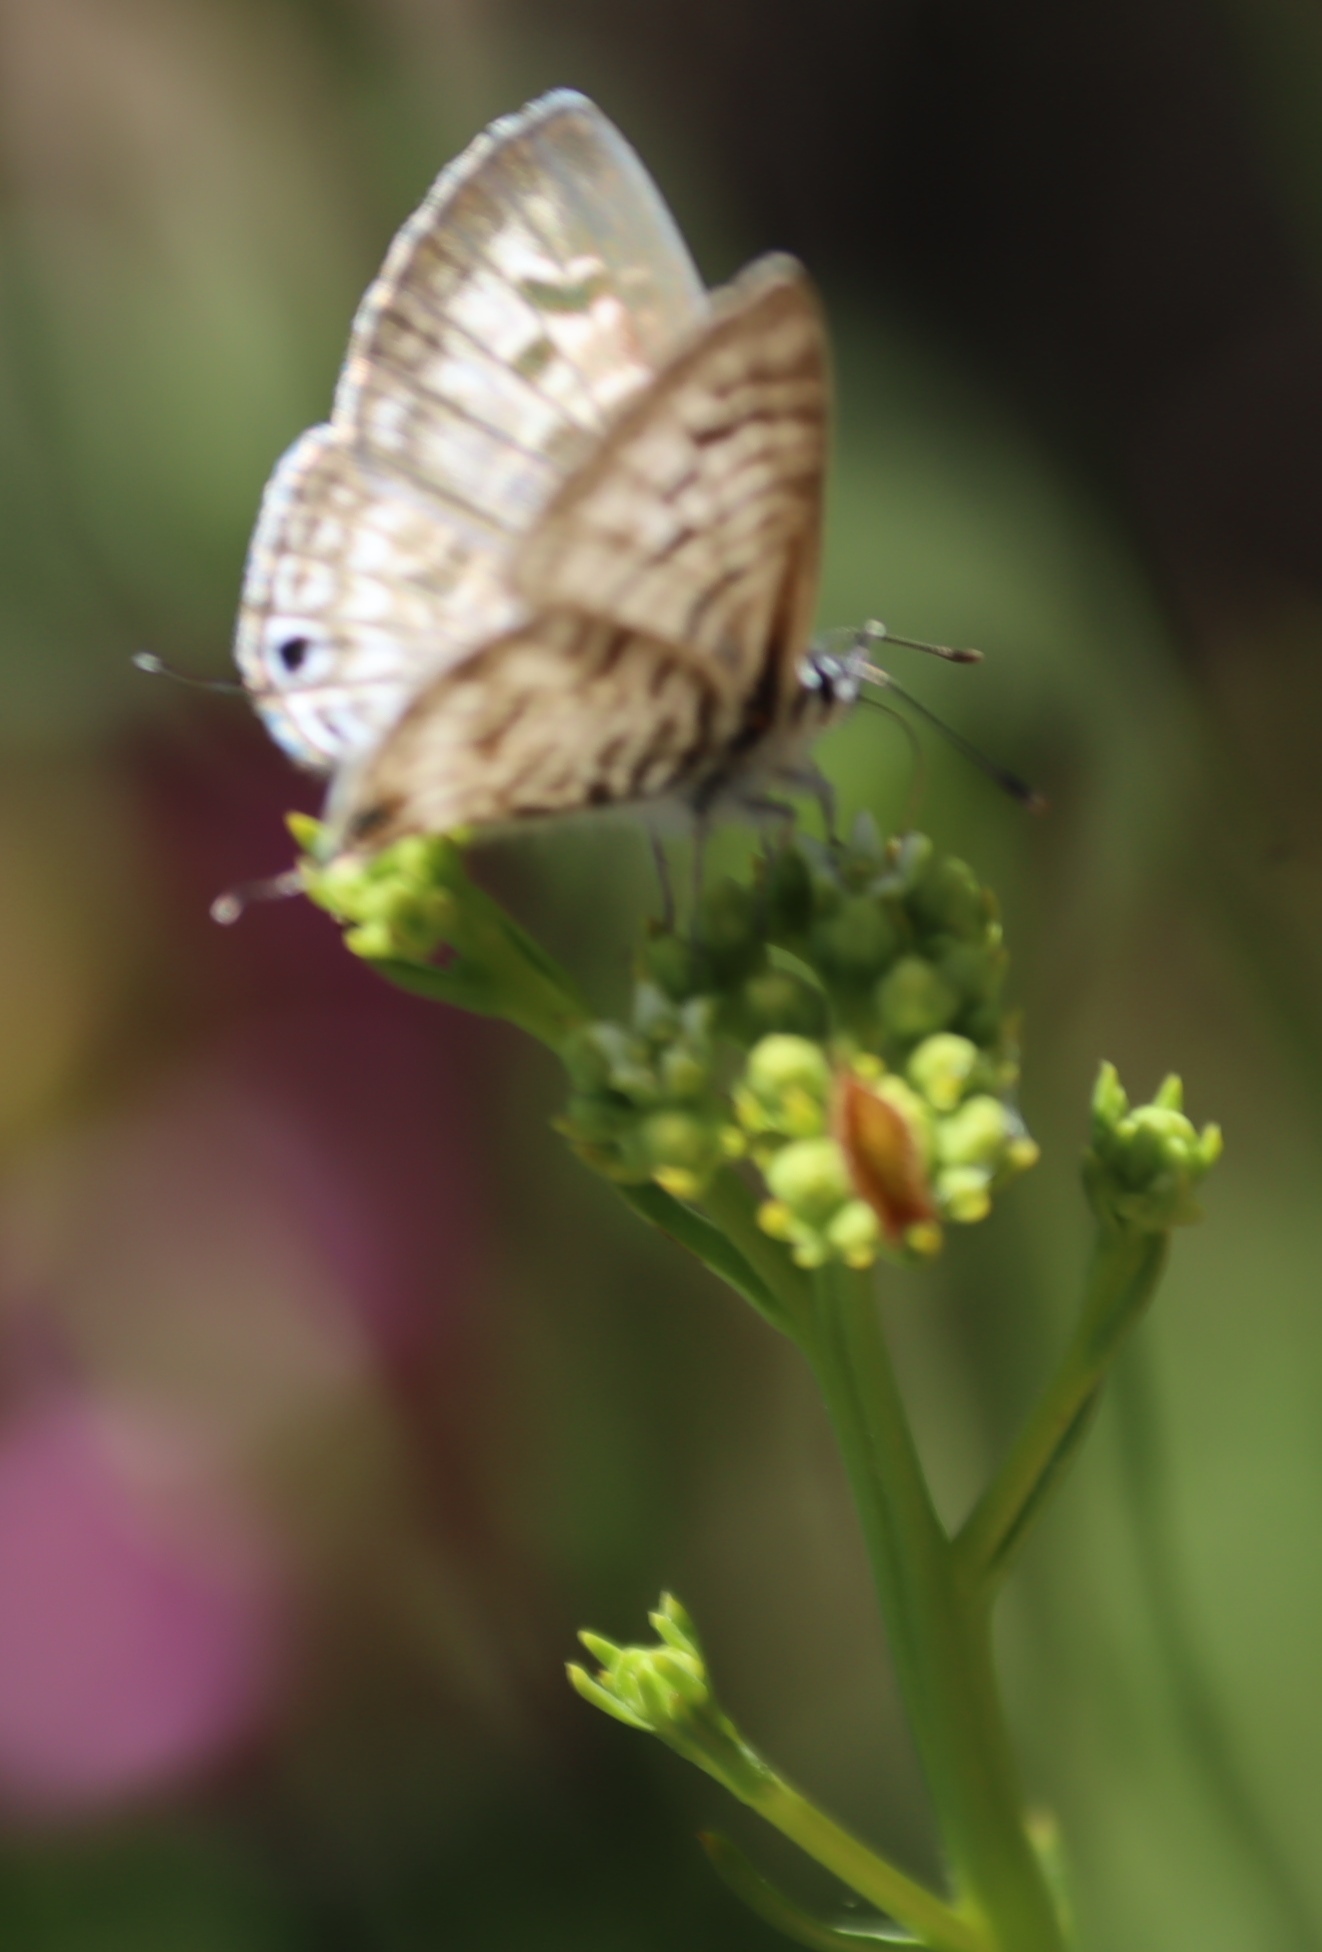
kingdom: Animalia
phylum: Arthropoda
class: Insecta
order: Lepidoptera
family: Lycaenidae
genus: Leptotes
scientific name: Leptotes
